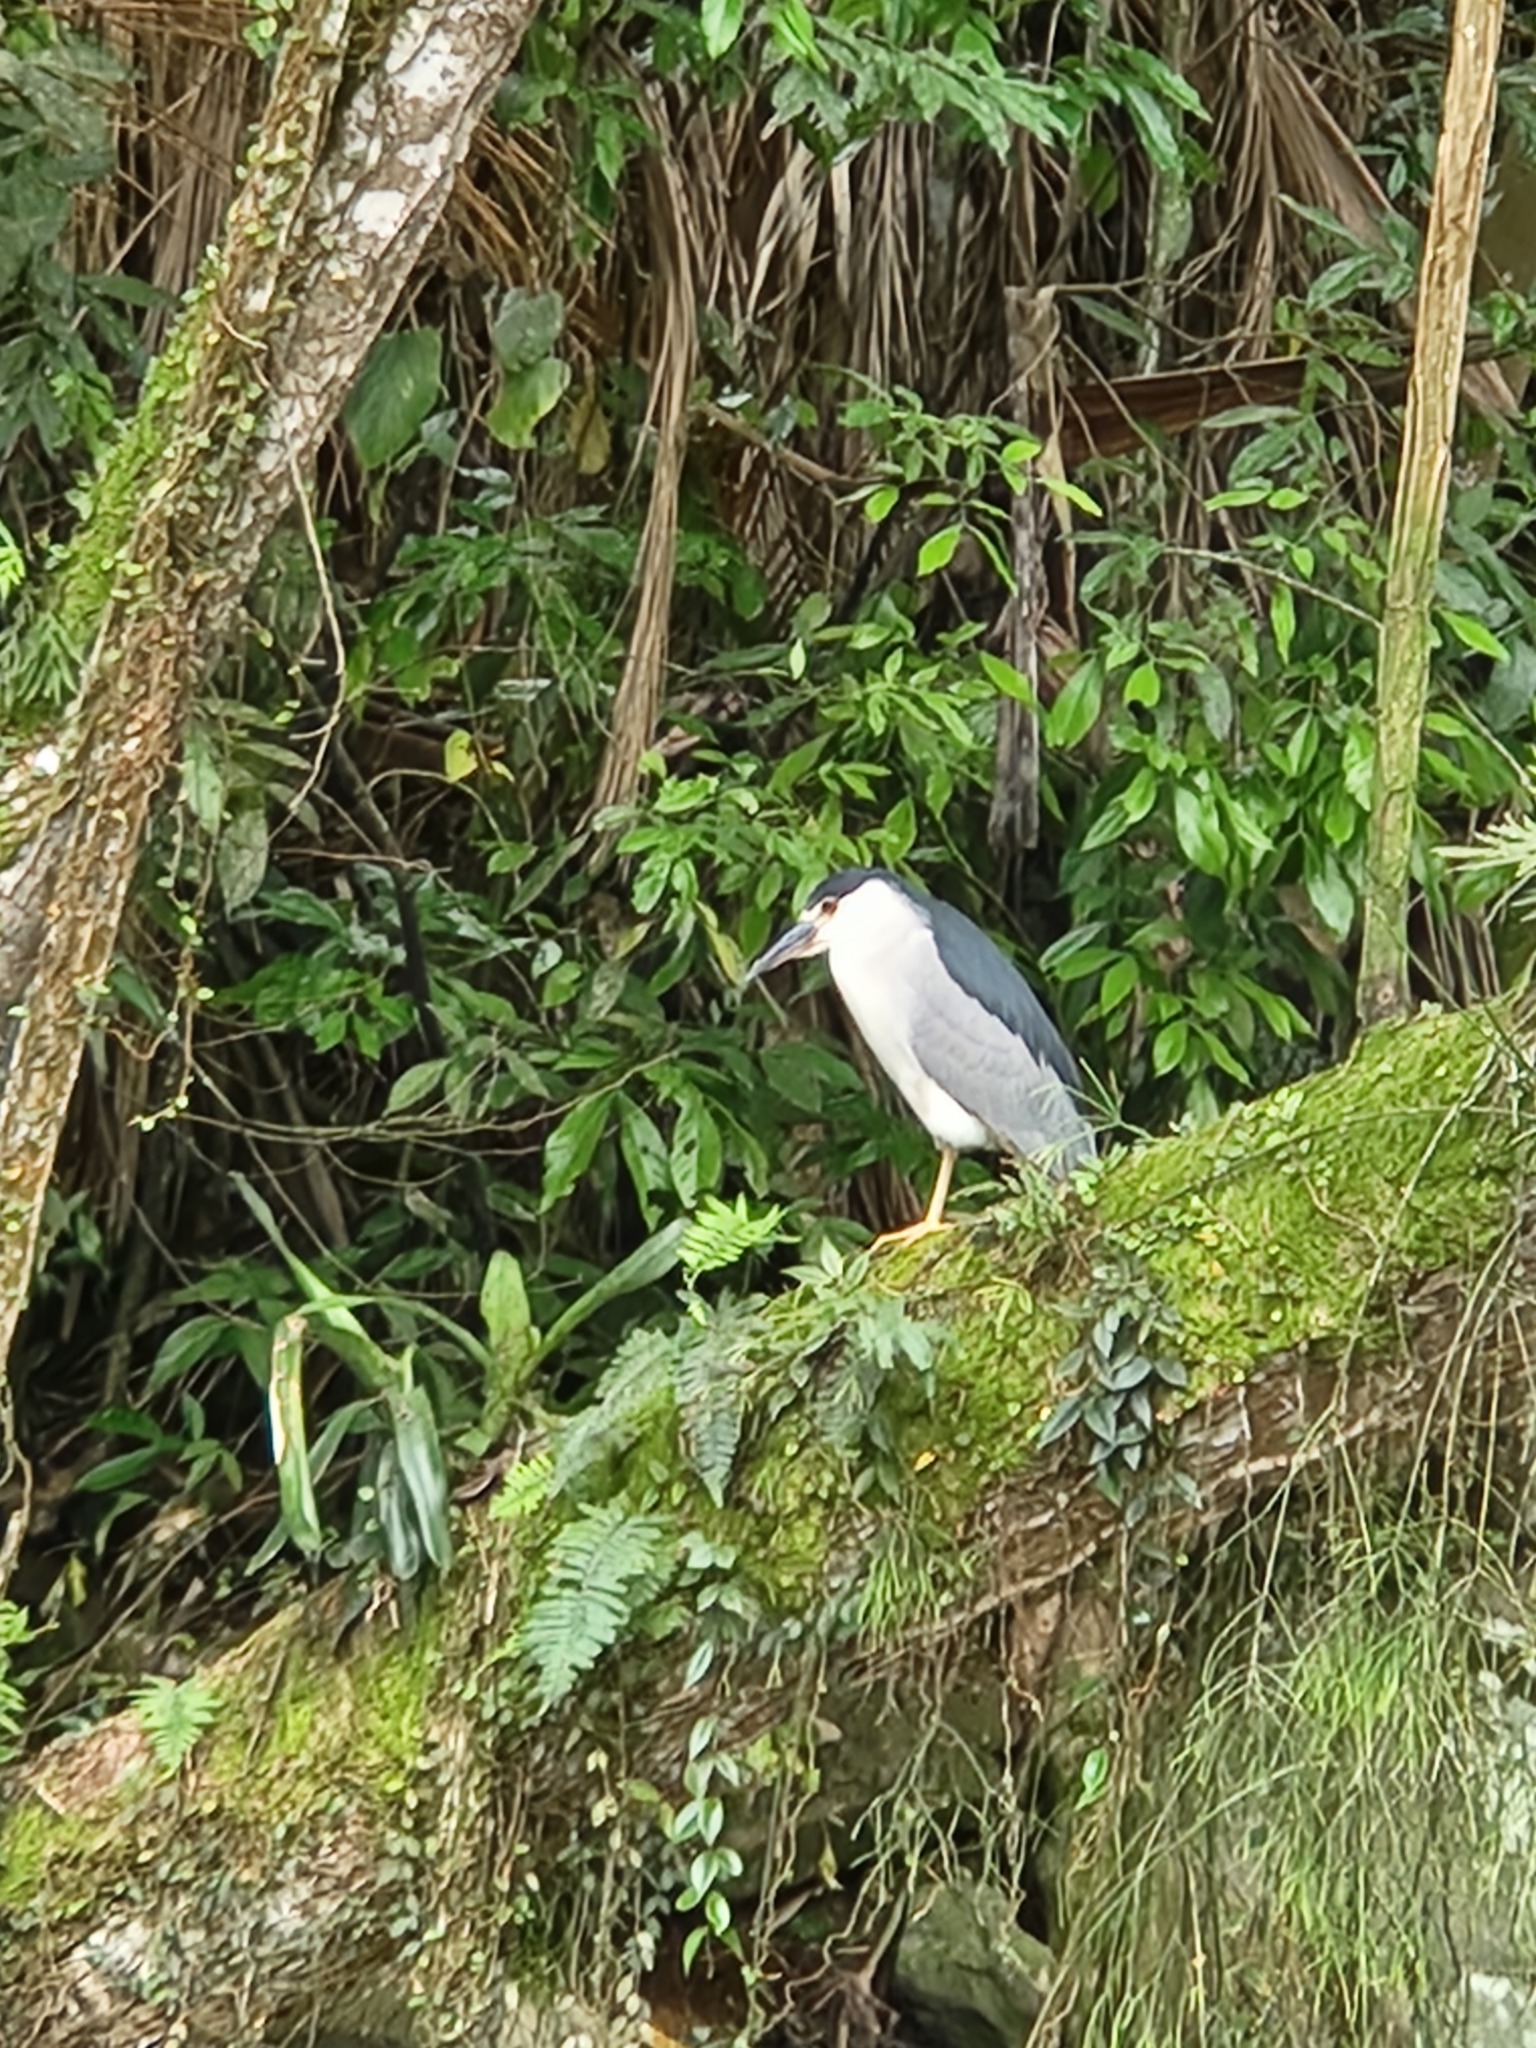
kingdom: Animalia
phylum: Chordata
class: Aves
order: Pelecaniformes
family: Ardeidae
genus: Nycticorax
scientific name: Nycticorax nycticorax
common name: Black-crowned night heron
